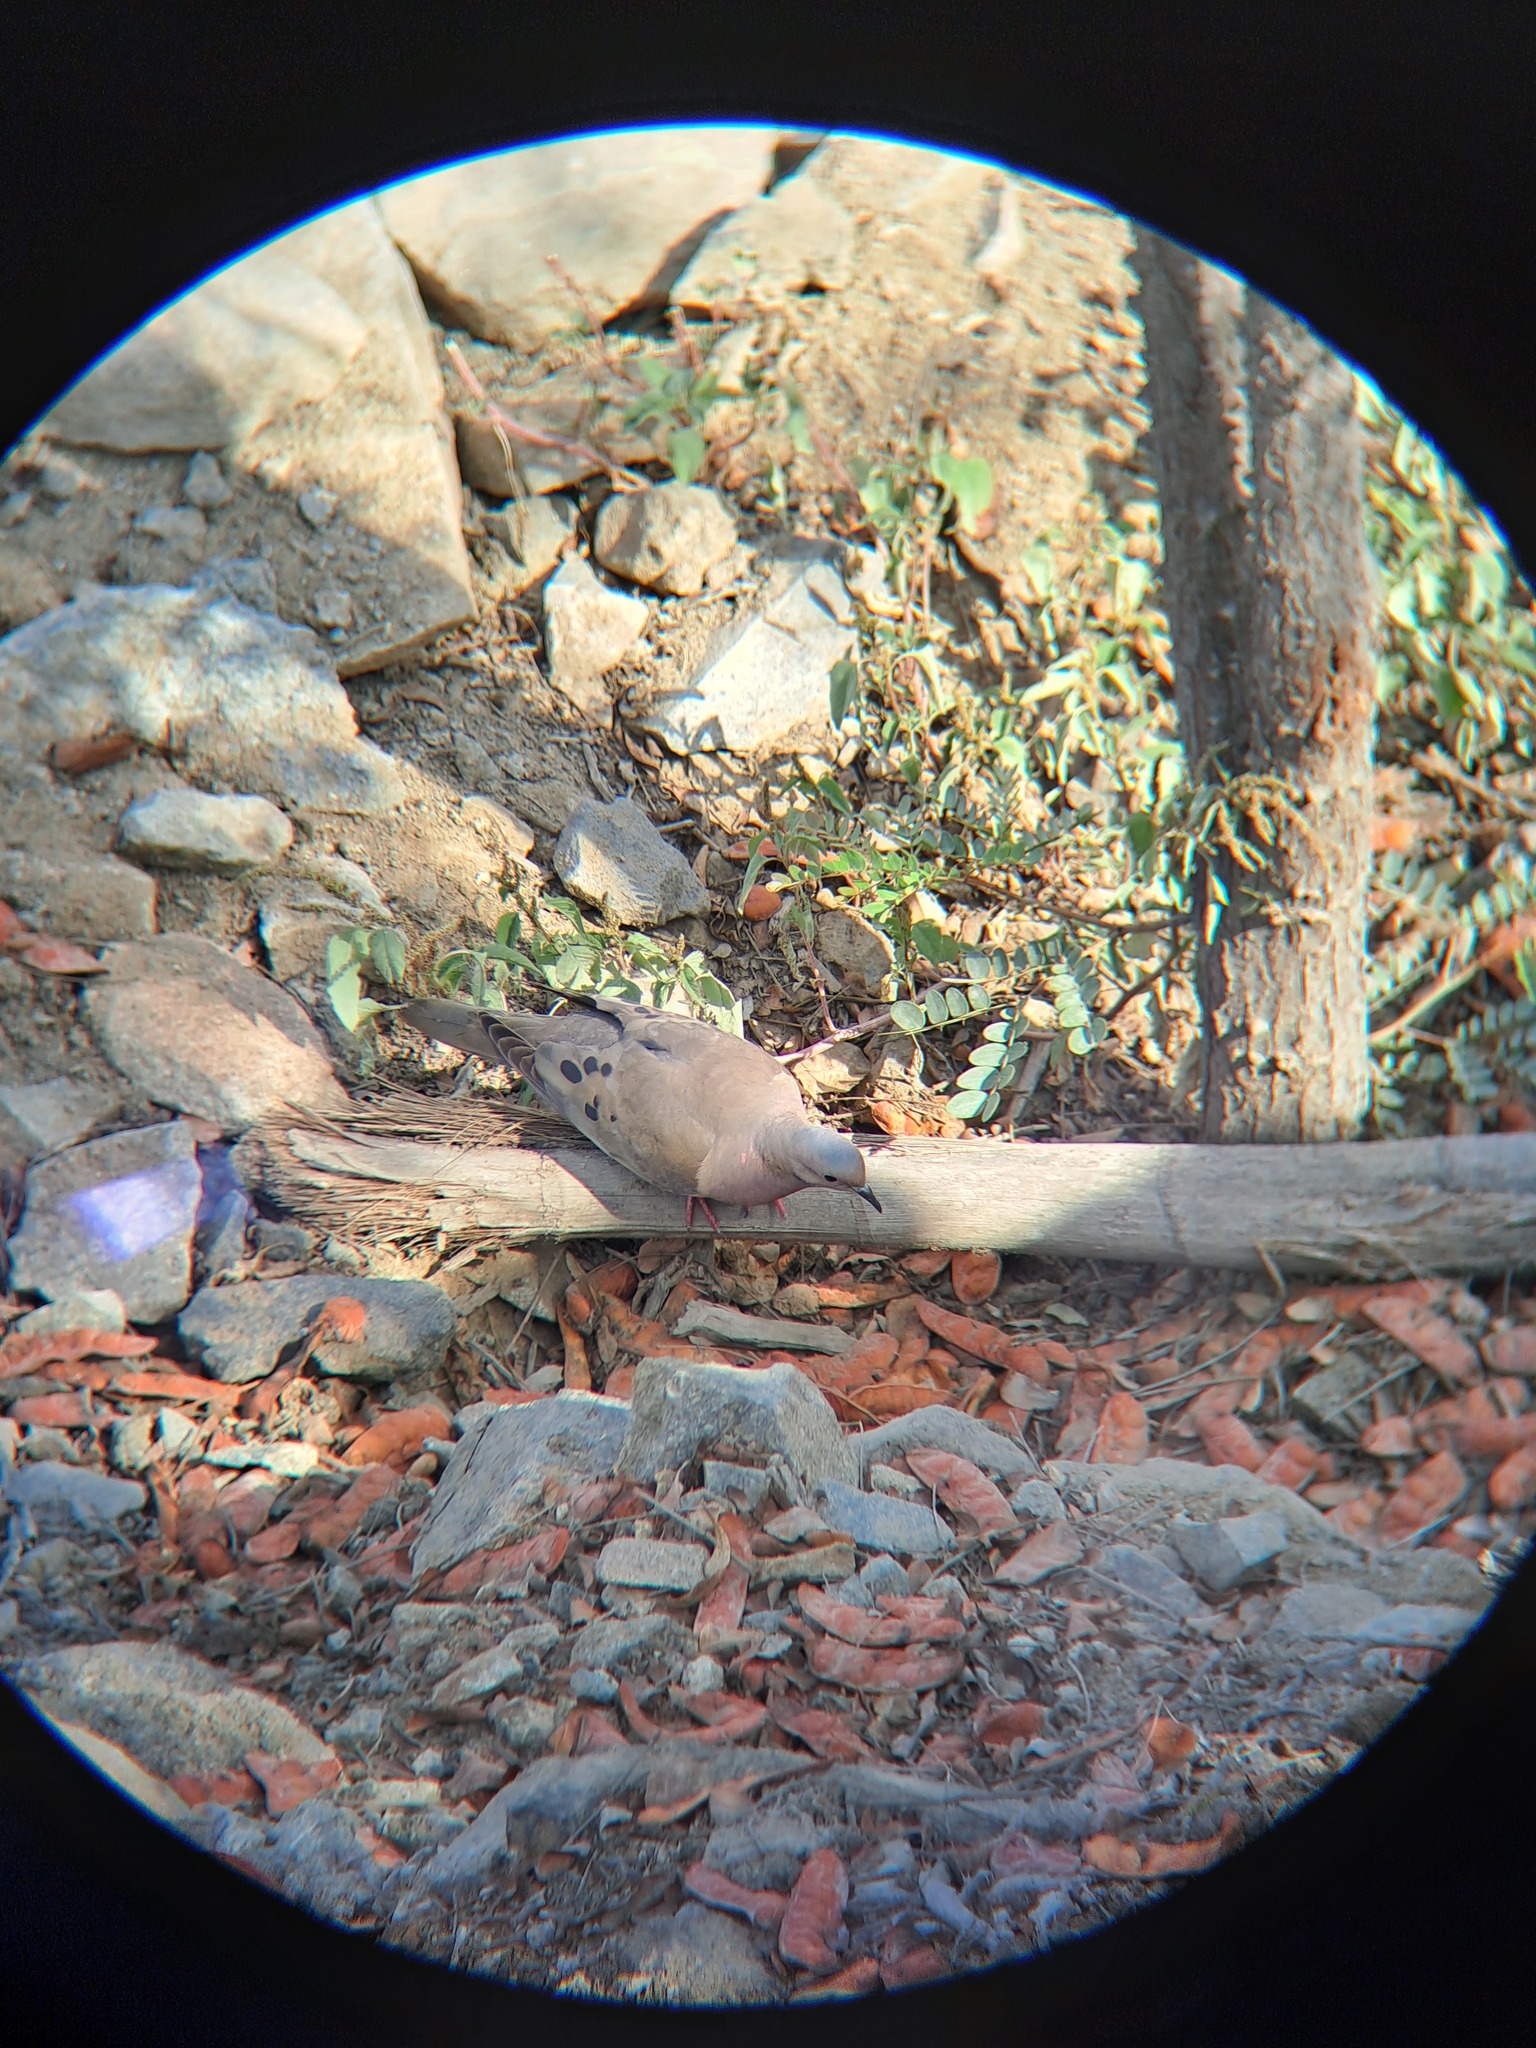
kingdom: Animalia
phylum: Chordata
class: Aves
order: Columbiformes
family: Columbidae
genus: Zenaida
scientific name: Zenaida auriculata
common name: Eared dove
